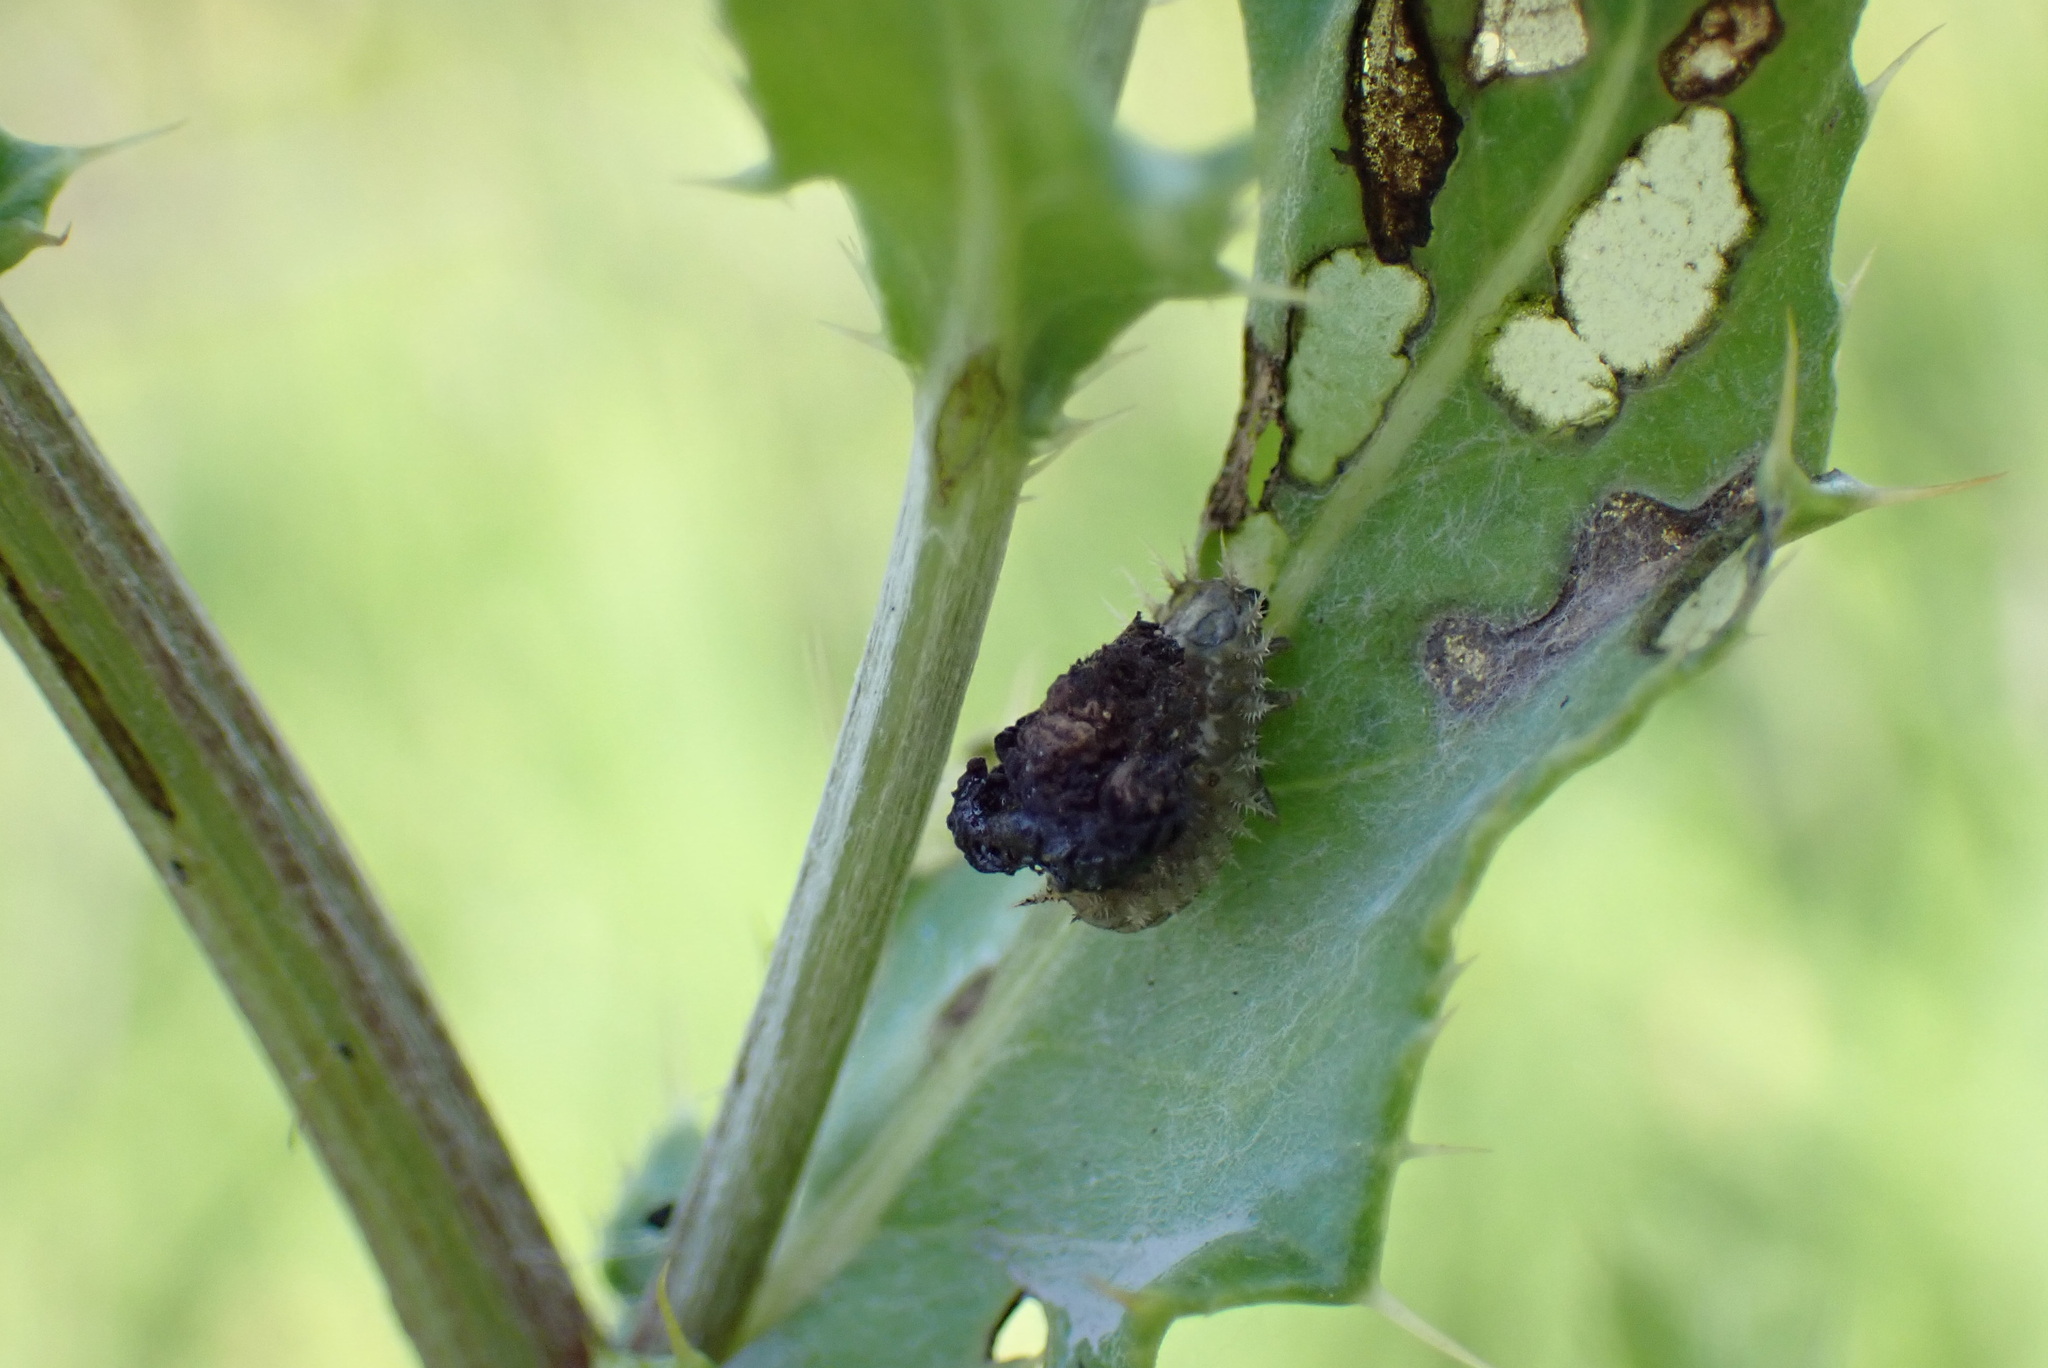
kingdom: Animalia
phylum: Arthropoda
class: Insecta
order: Coleoptera
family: Chrysomelidae
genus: Cassida
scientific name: Cassida rubiginosa
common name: Thistle tortoise beetle
